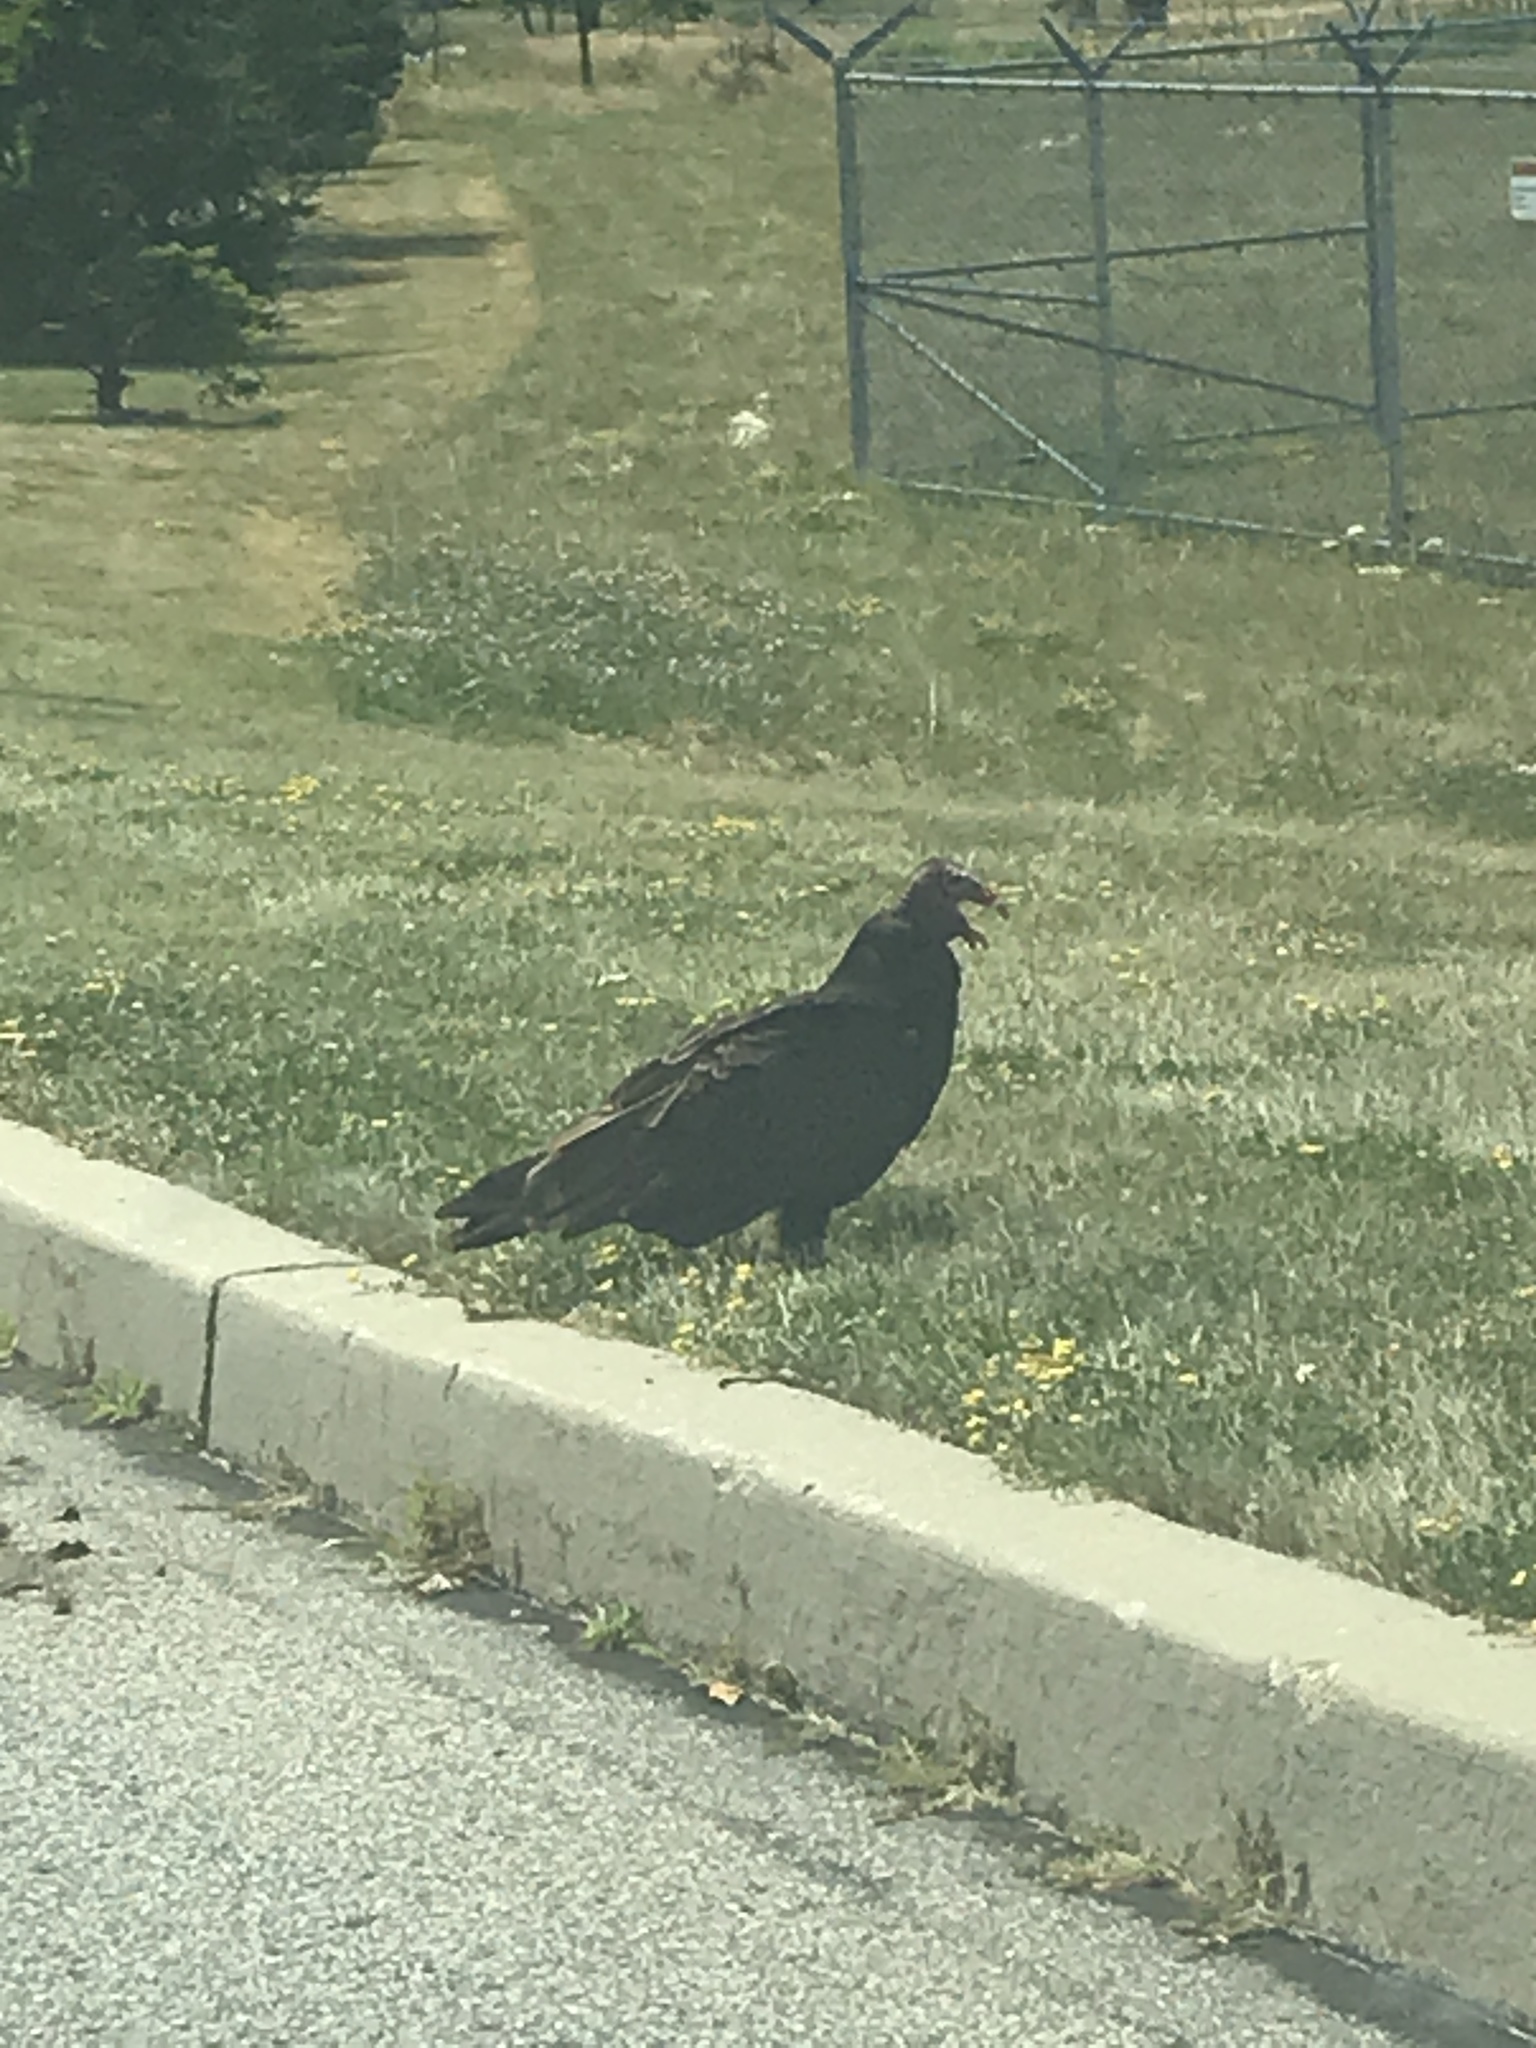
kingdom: Animalia
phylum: Chordata
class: Aves
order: Accipitriformes
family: Cathartidae
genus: Cathartes
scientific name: Cathartes aura
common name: Turkey vulture
